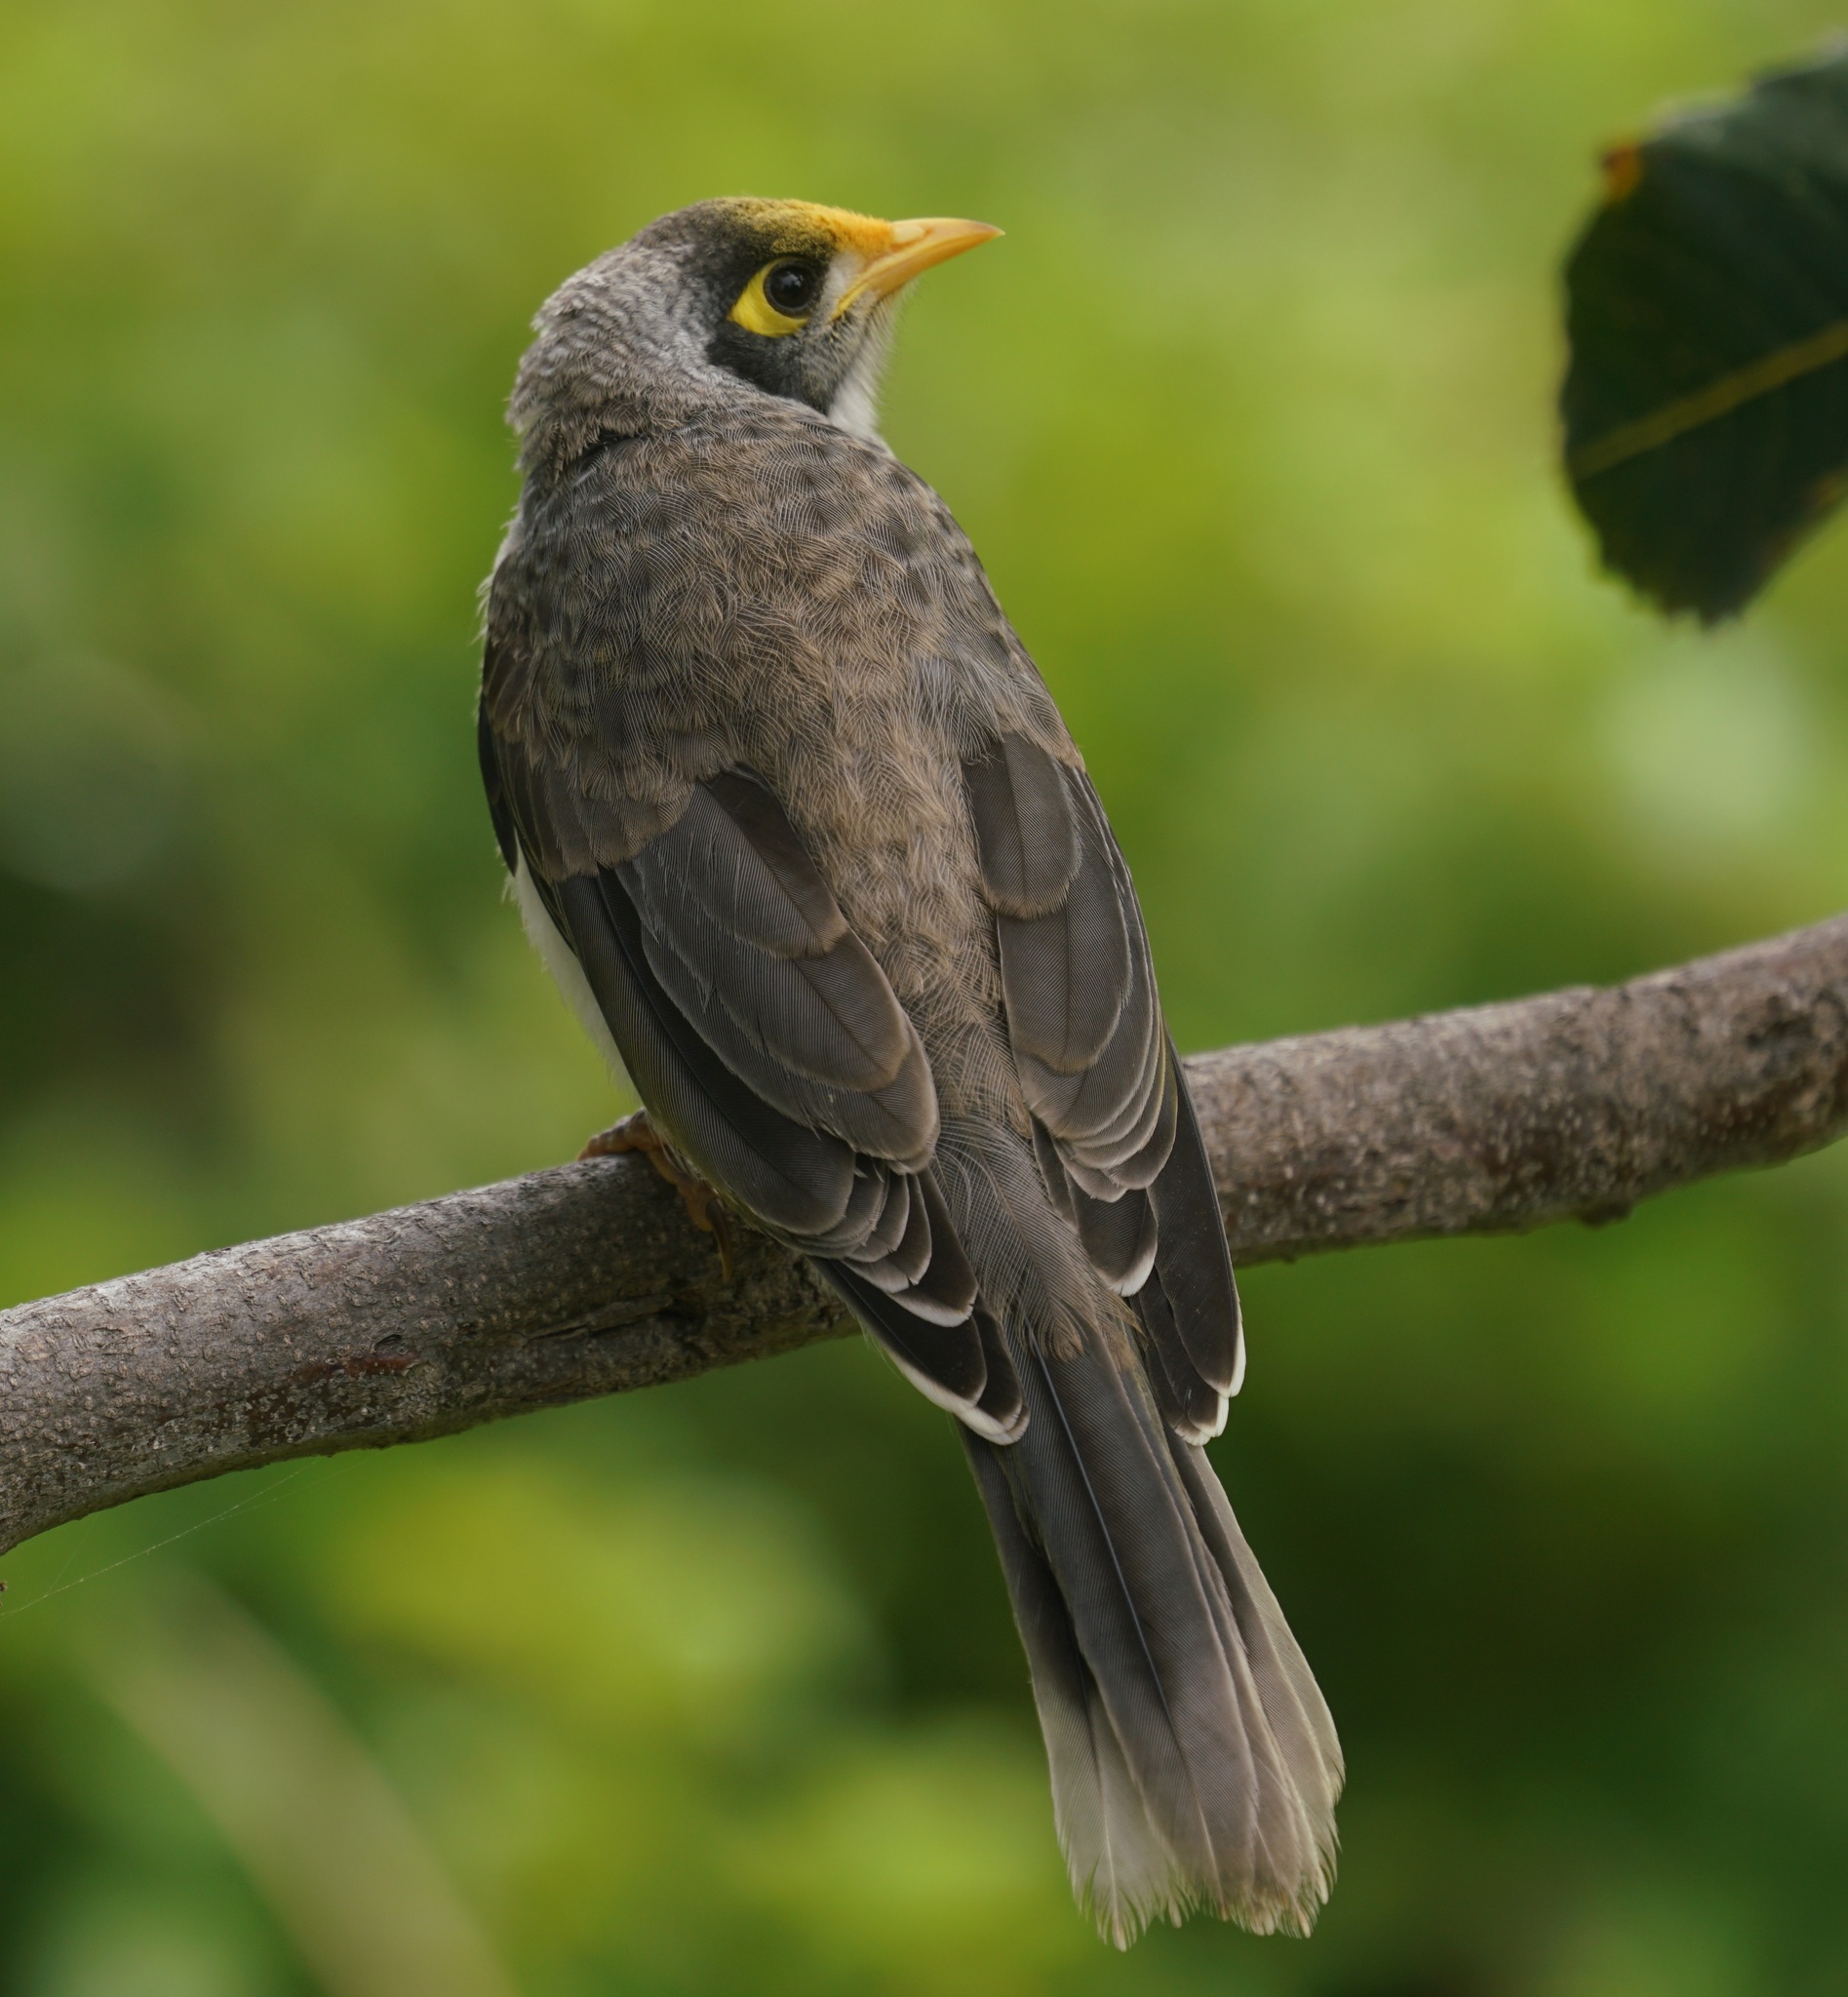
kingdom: Animalia
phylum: Chordata
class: Aves
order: Passeriformes
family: Meliphagidae
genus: Manorina
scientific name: Manorina melanocephala
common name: Noisy miner
